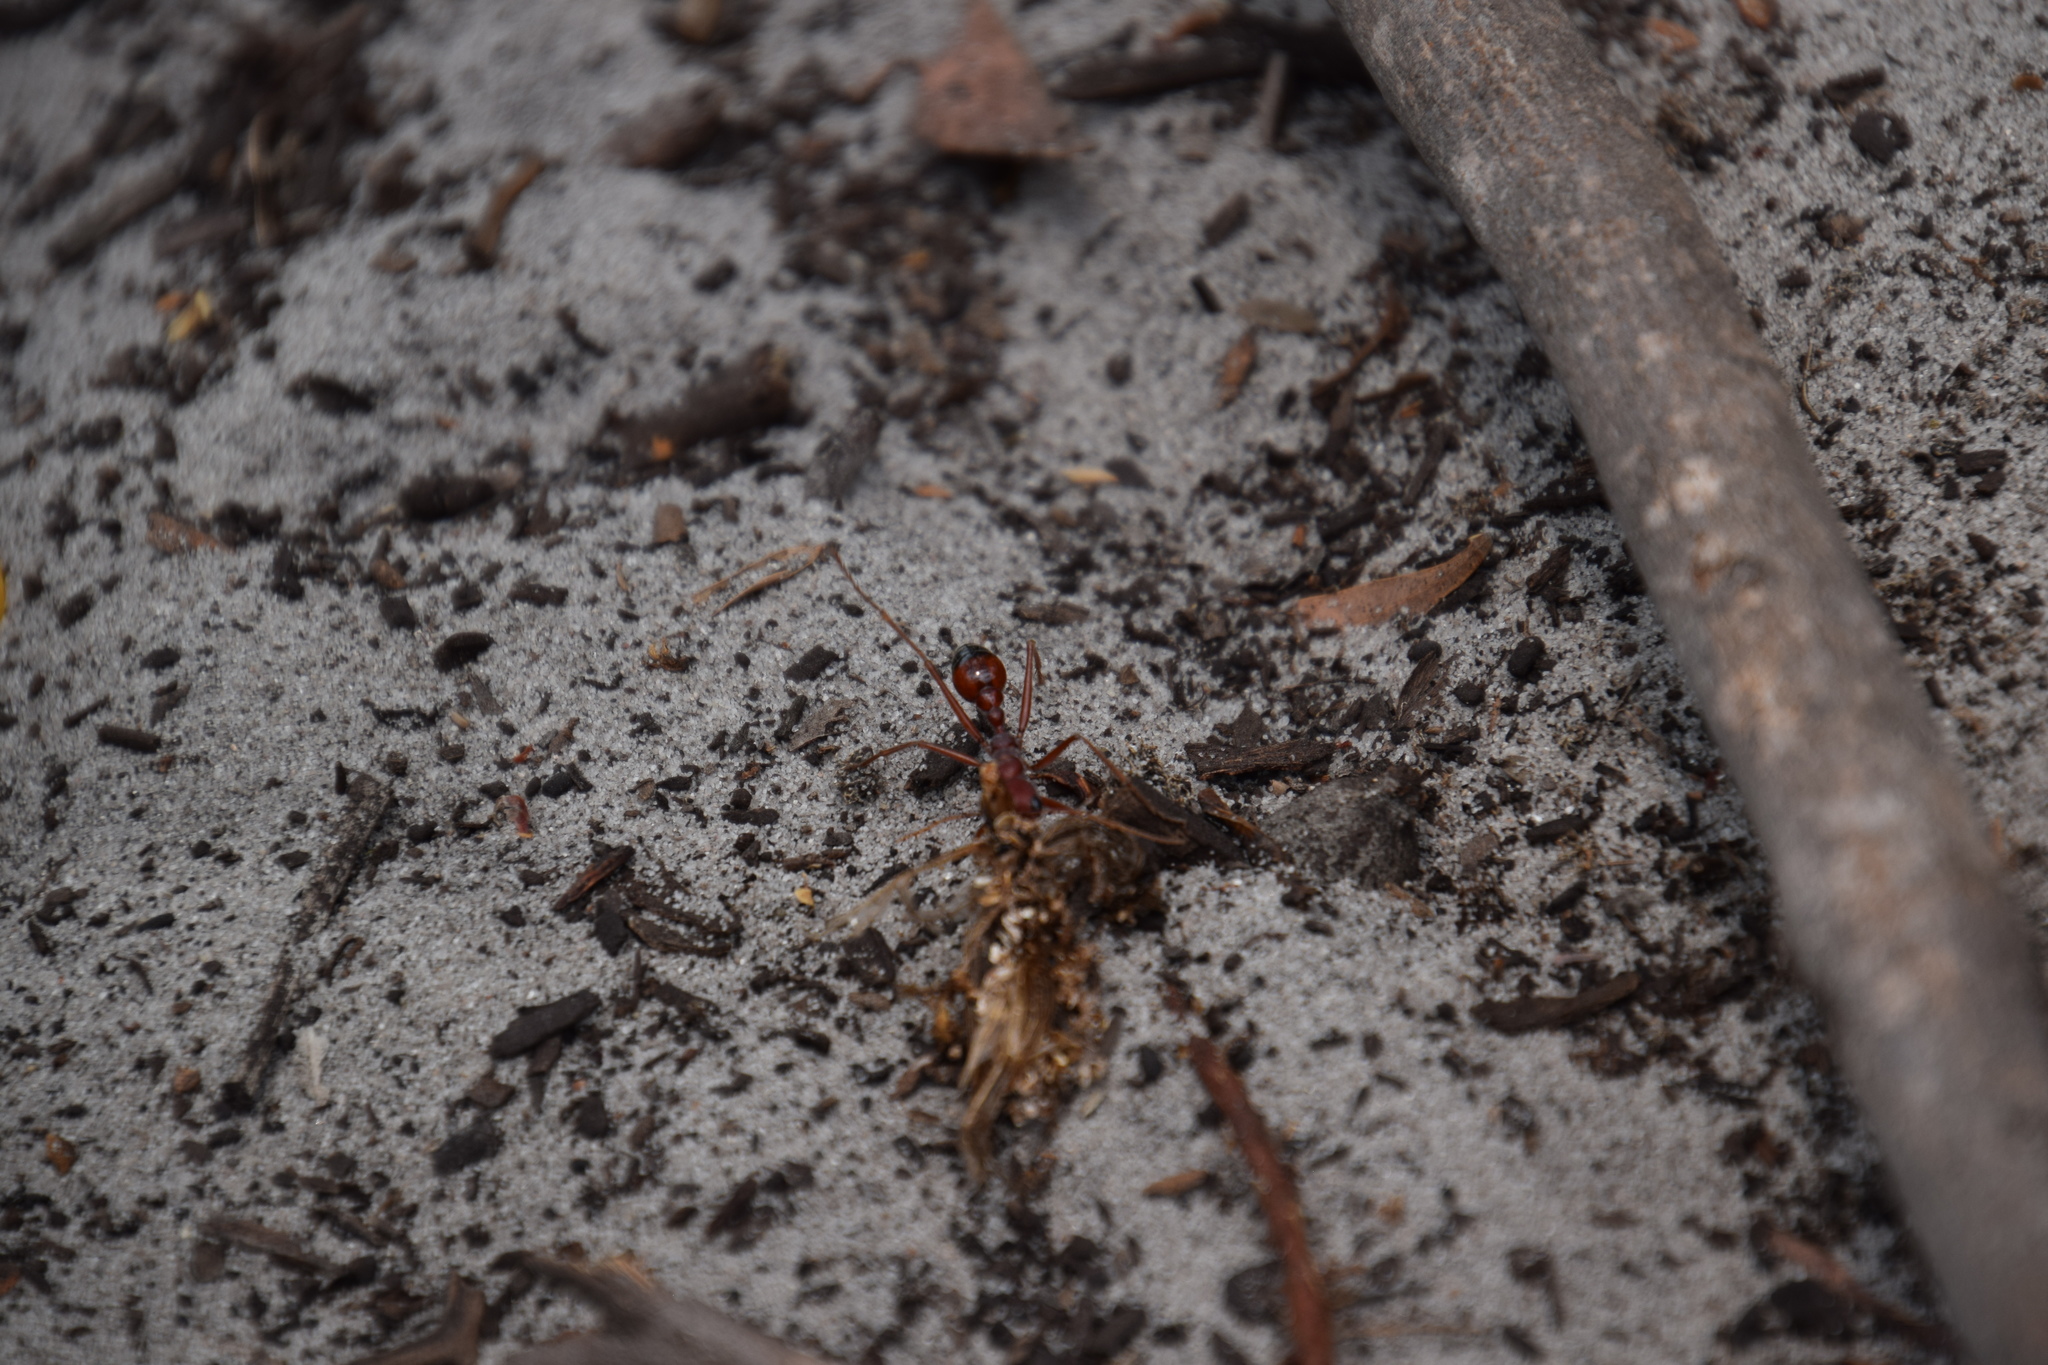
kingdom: Animalia
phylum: Arthropoda
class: Insecta
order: Hymenoptera
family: Formicidae
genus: Myrmecia
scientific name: Myrmecia gulosa
